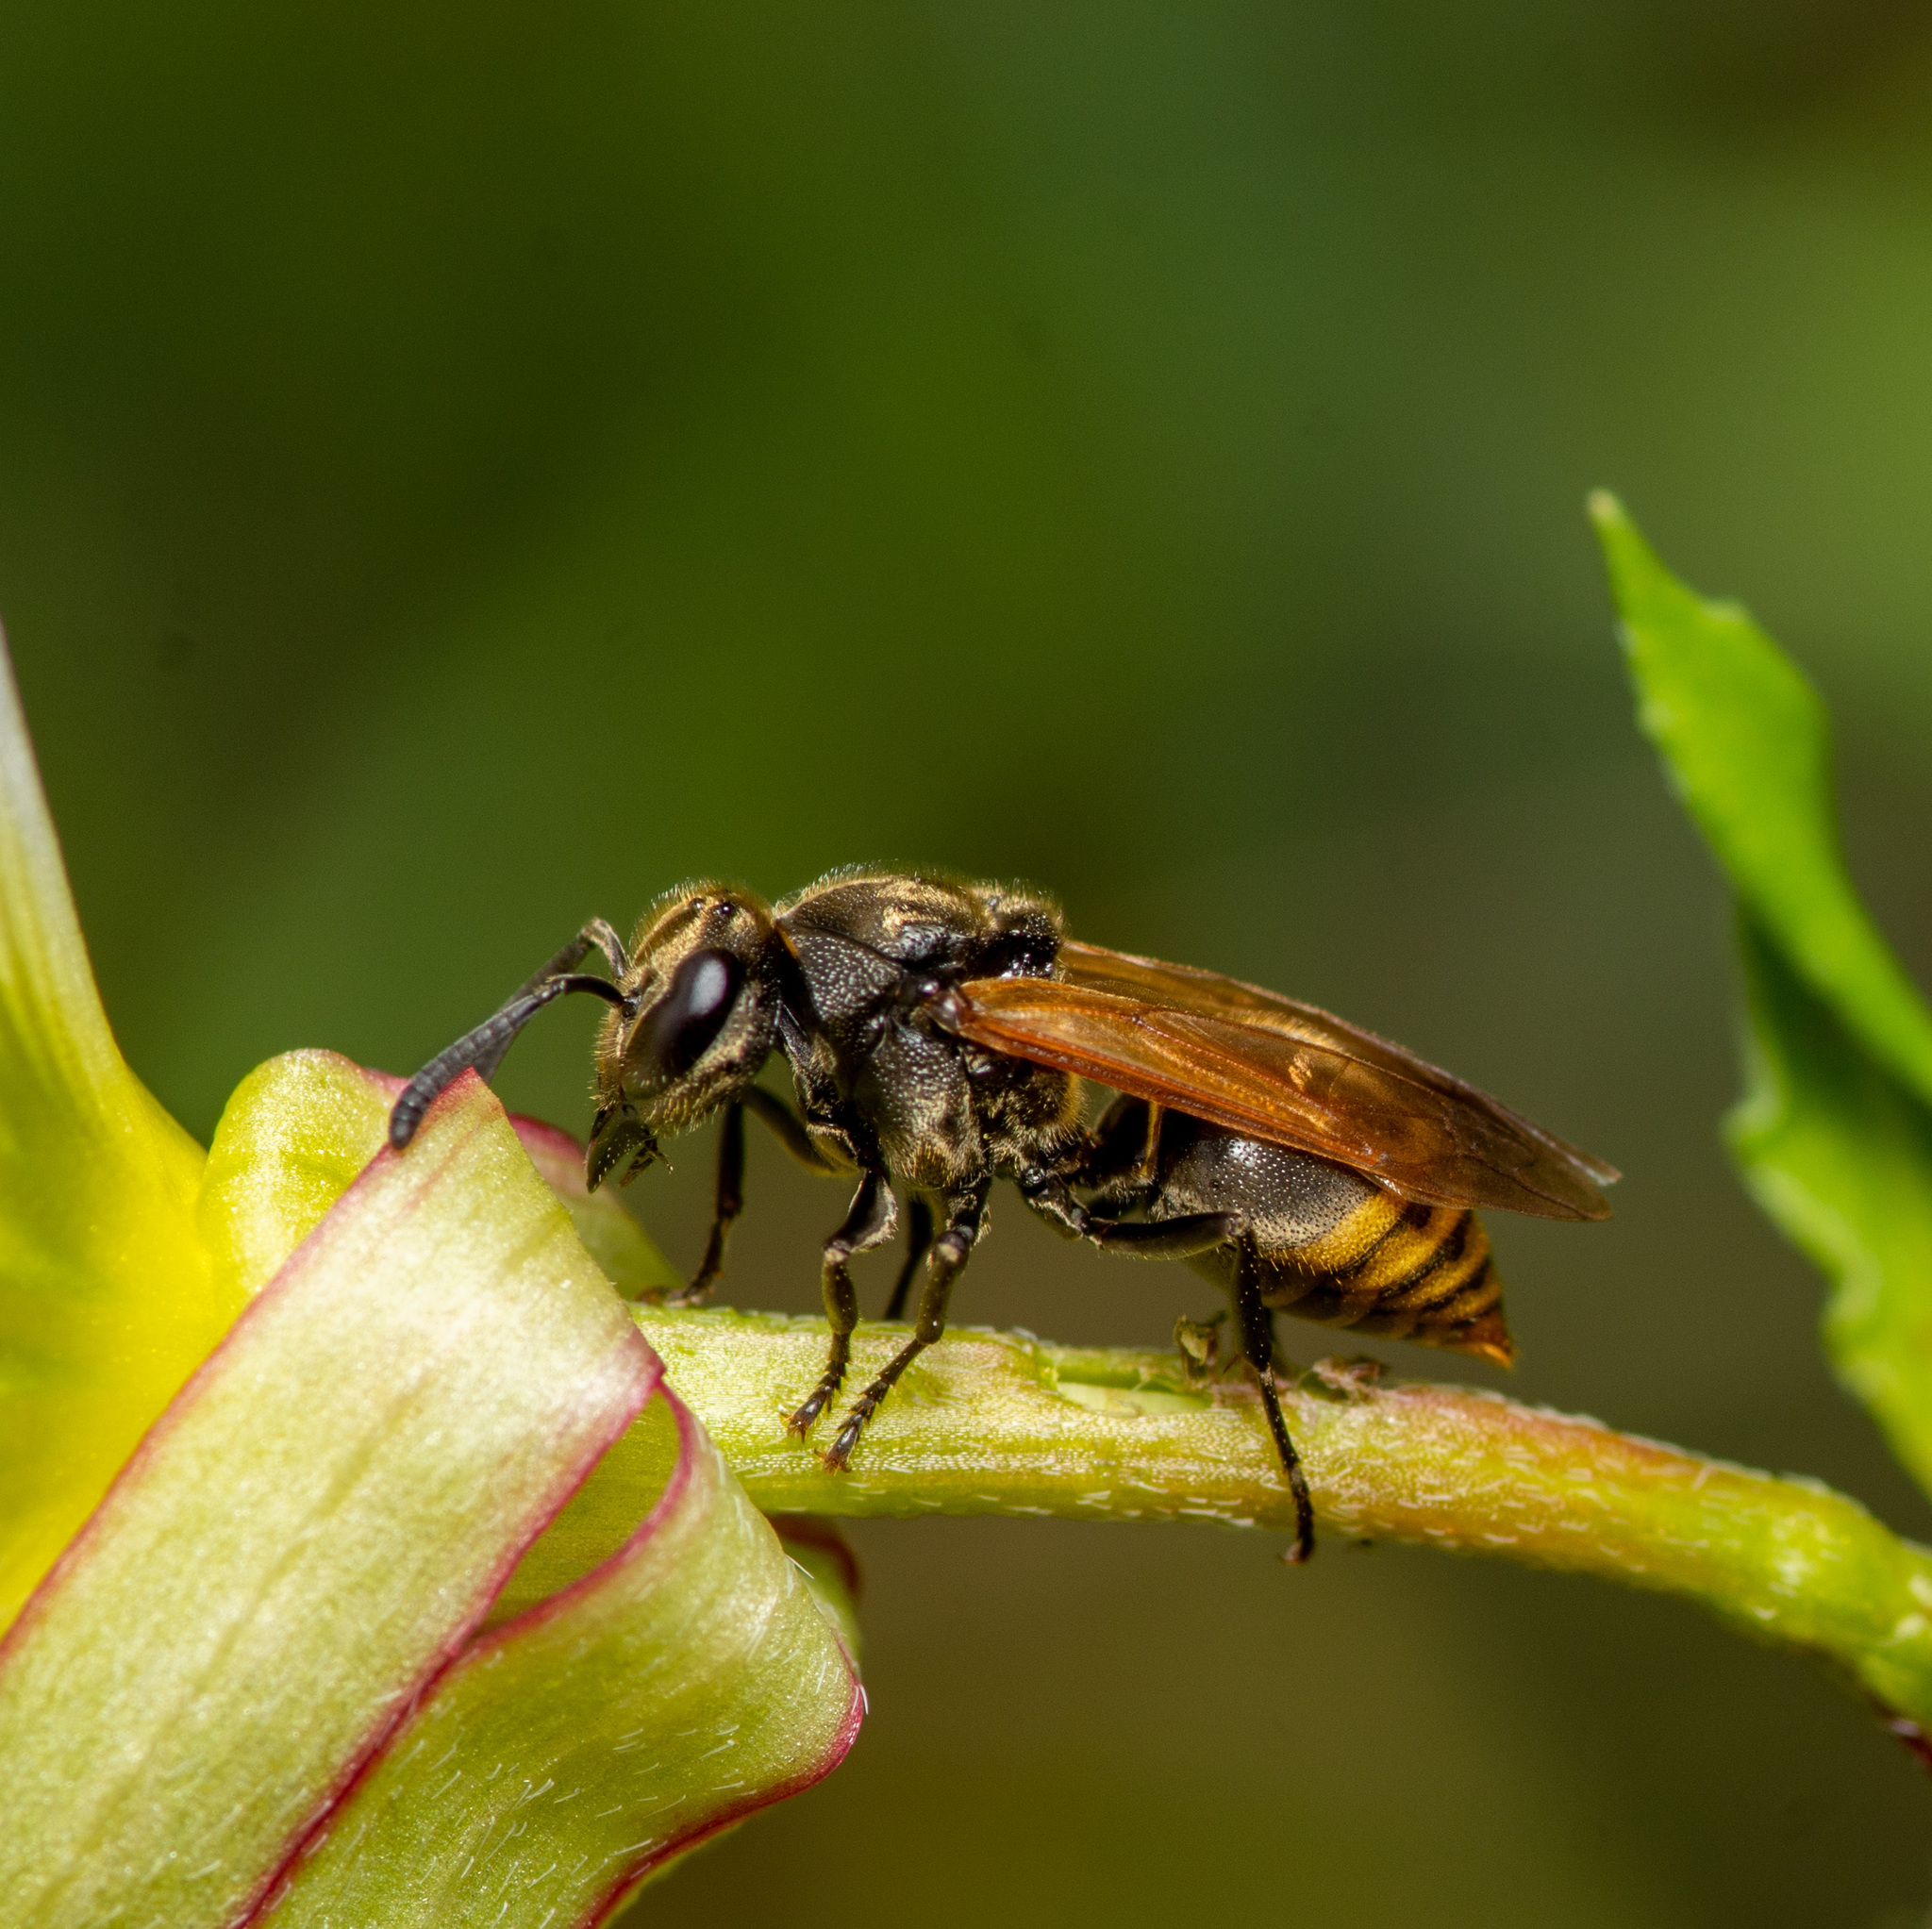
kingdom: Animalia
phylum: Arthropoda
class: Insecta
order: Hymenoptera
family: Vespidae
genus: Brachygastra
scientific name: Brachygastra mellifica
